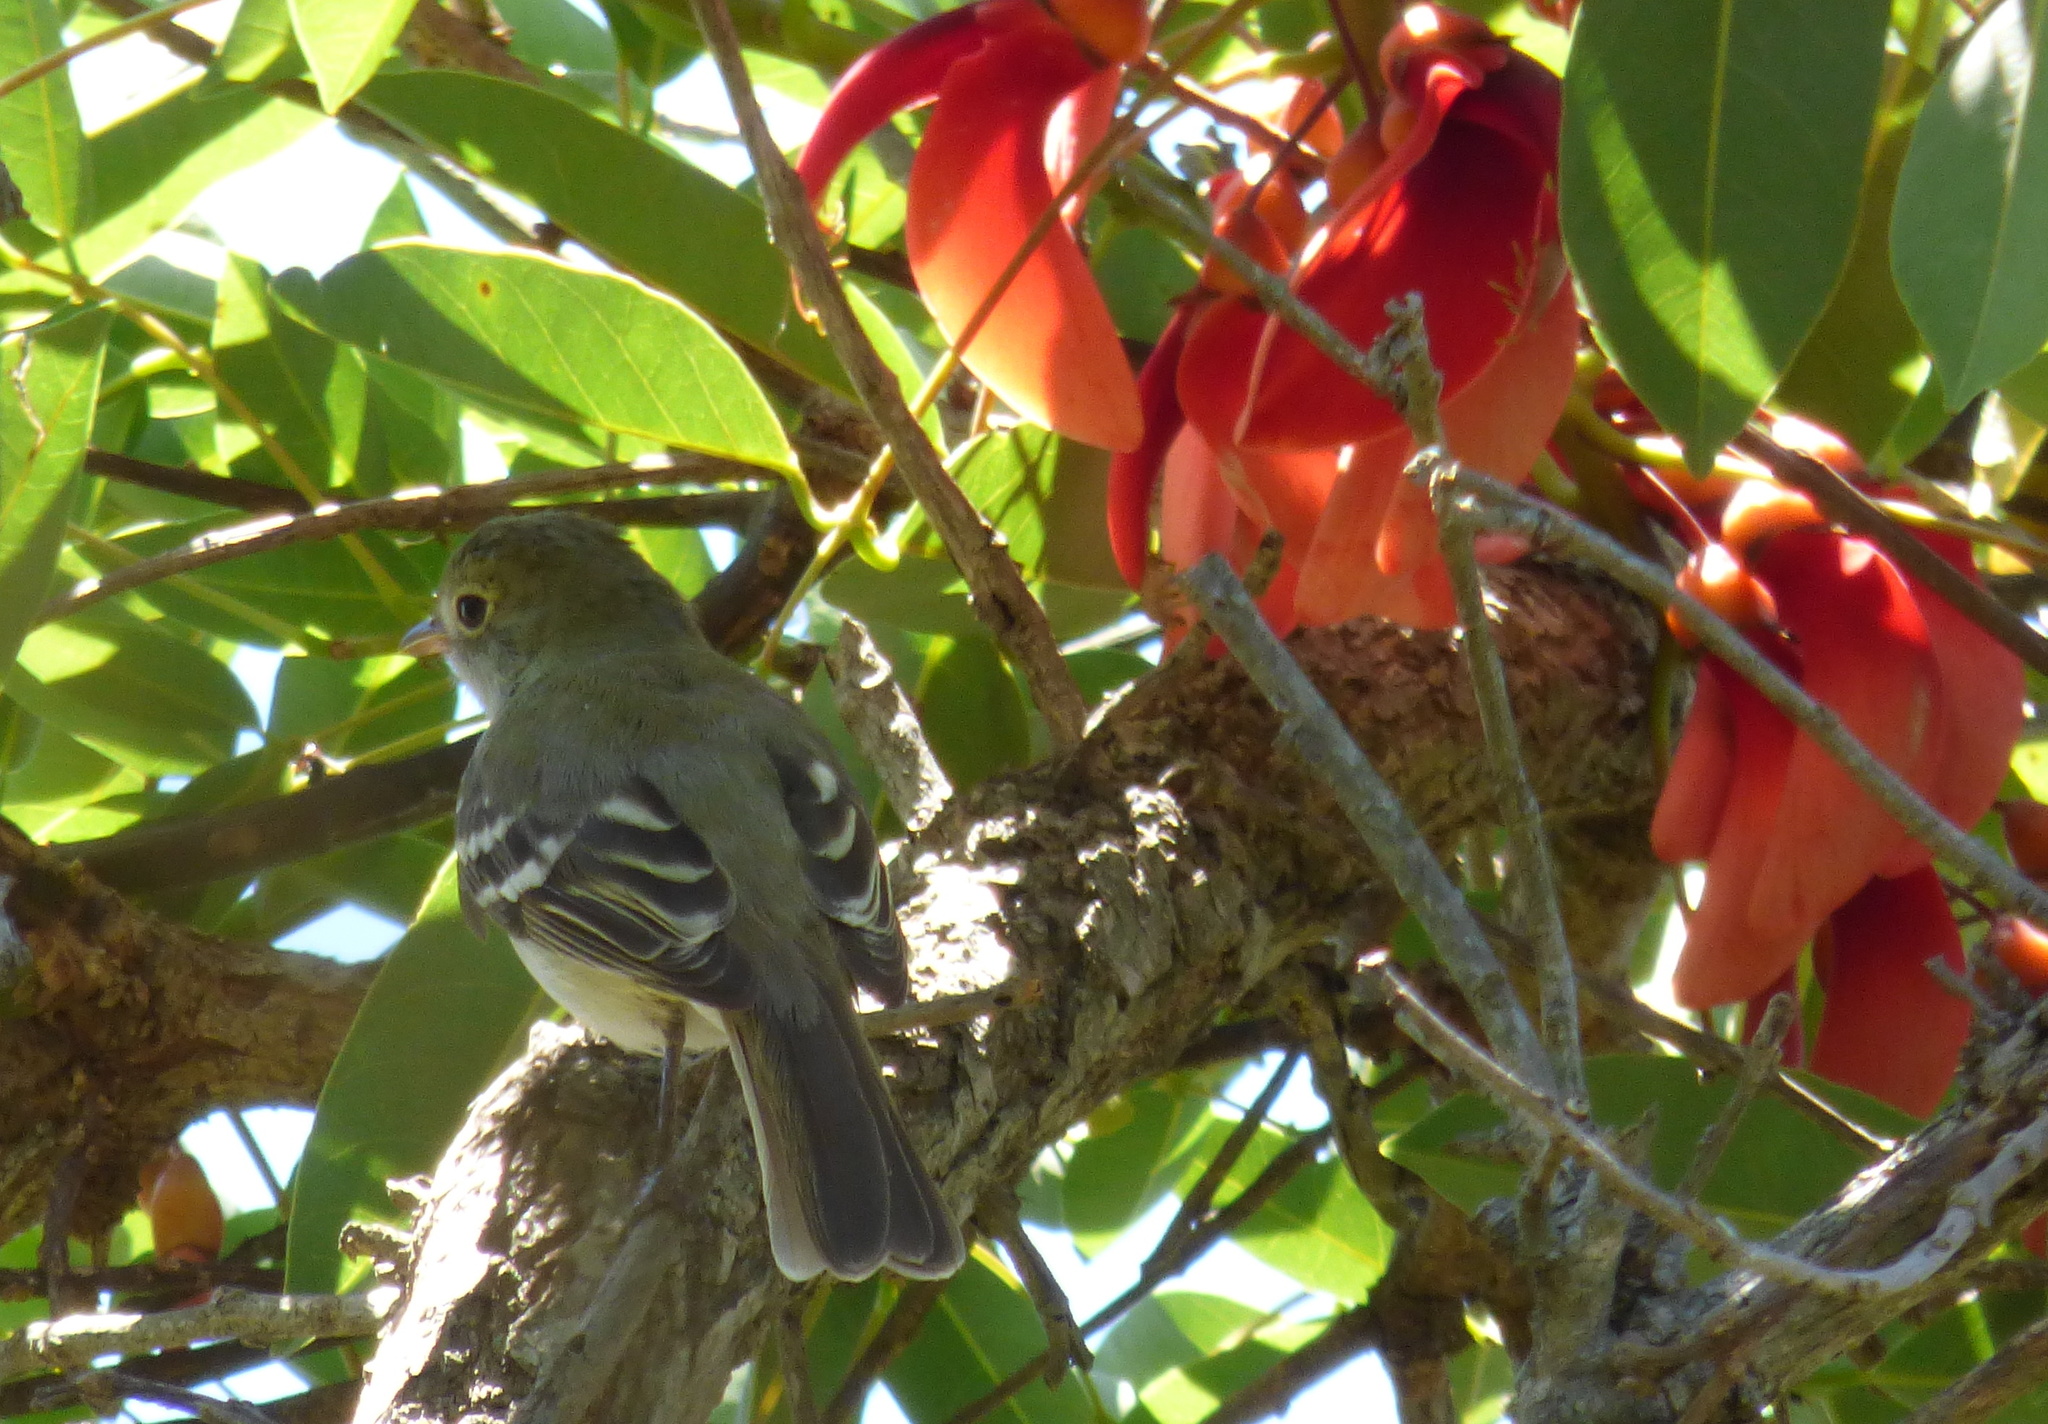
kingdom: Animalia
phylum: Chordata
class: Aves
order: Passeriformes
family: Tyrannidae
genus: Elaenia
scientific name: Elaenia parvirostris
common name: Small-billed elaenia
